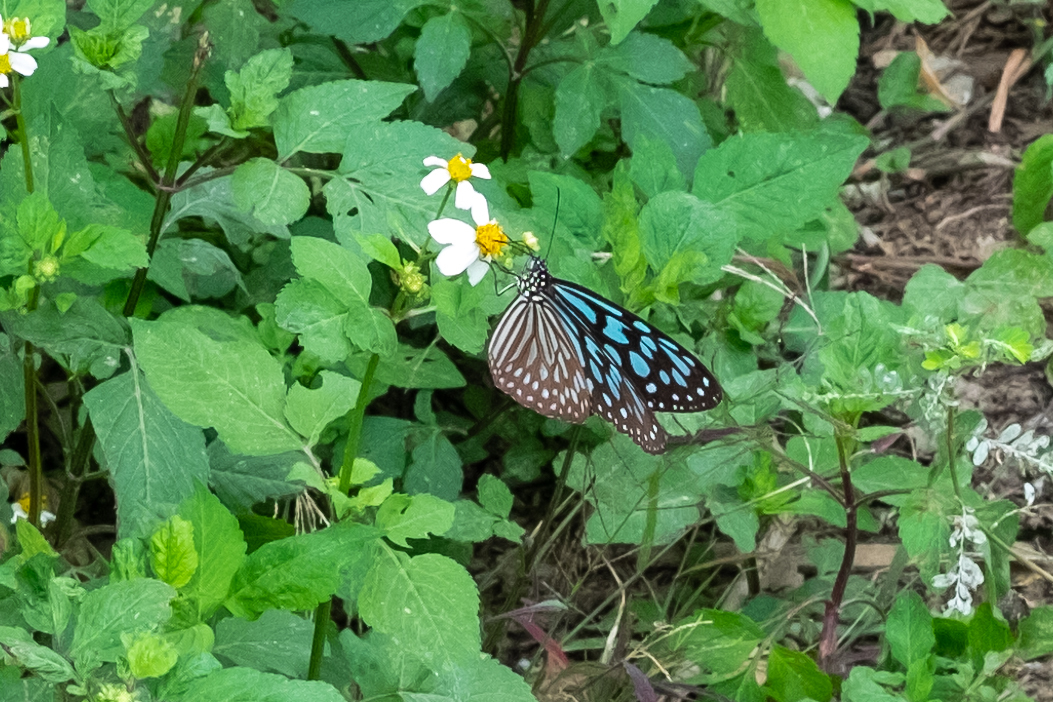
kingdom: Animalia
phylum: Arthropoda
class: Insecta
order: Lepidoptera
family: Nymphalidae
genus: Ideopsis
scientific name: Ideopsis similis
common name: Ceylon blue glassy tiger
